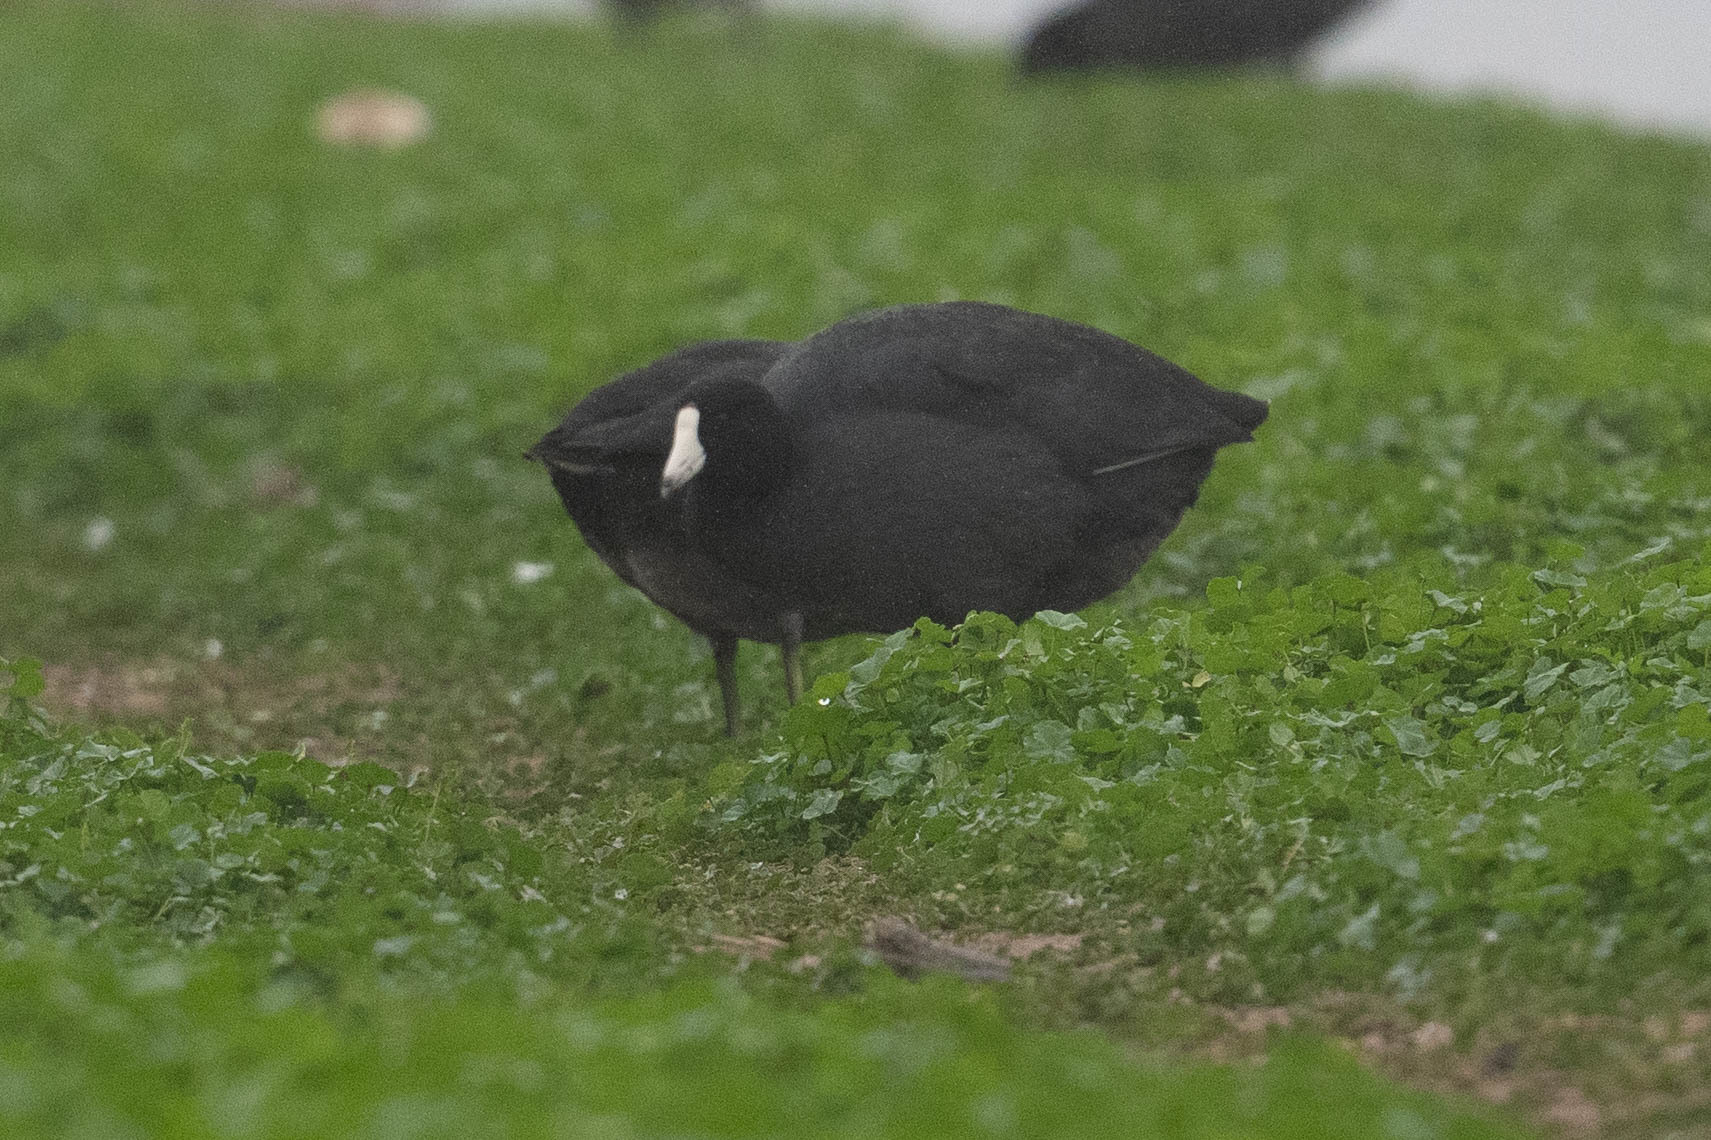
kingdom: Animalia
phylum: Chordata
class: Aves
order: Gruiformes
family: Rallidae
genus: Fulica
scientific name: Fulica americana
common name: American coot
